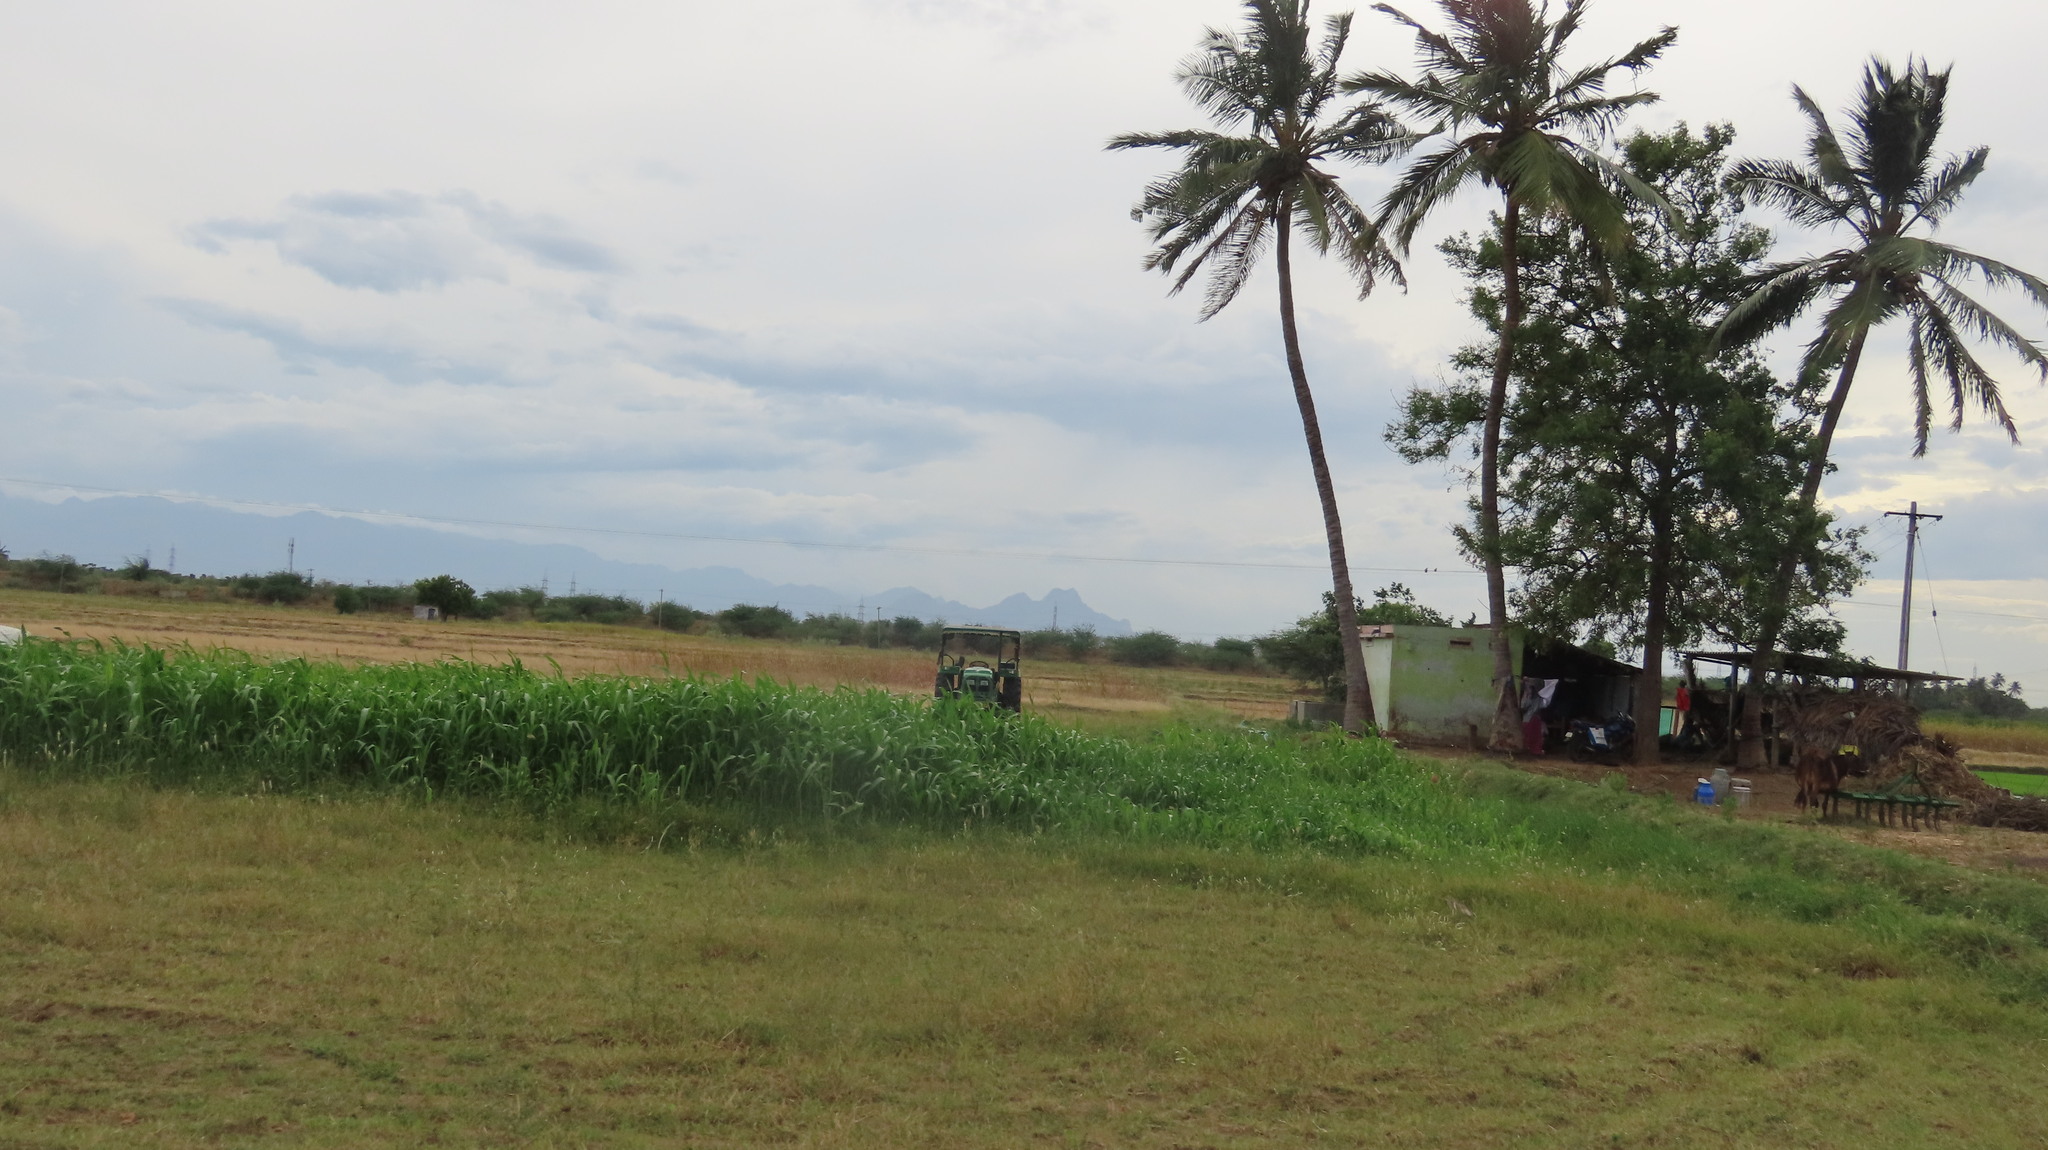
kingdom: Plantae
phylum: Tracheophyta
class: Liliopsida
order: Arecales
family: Arecaceae
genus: Cocos
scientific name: Cocos nucifera
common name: Coconut palm
